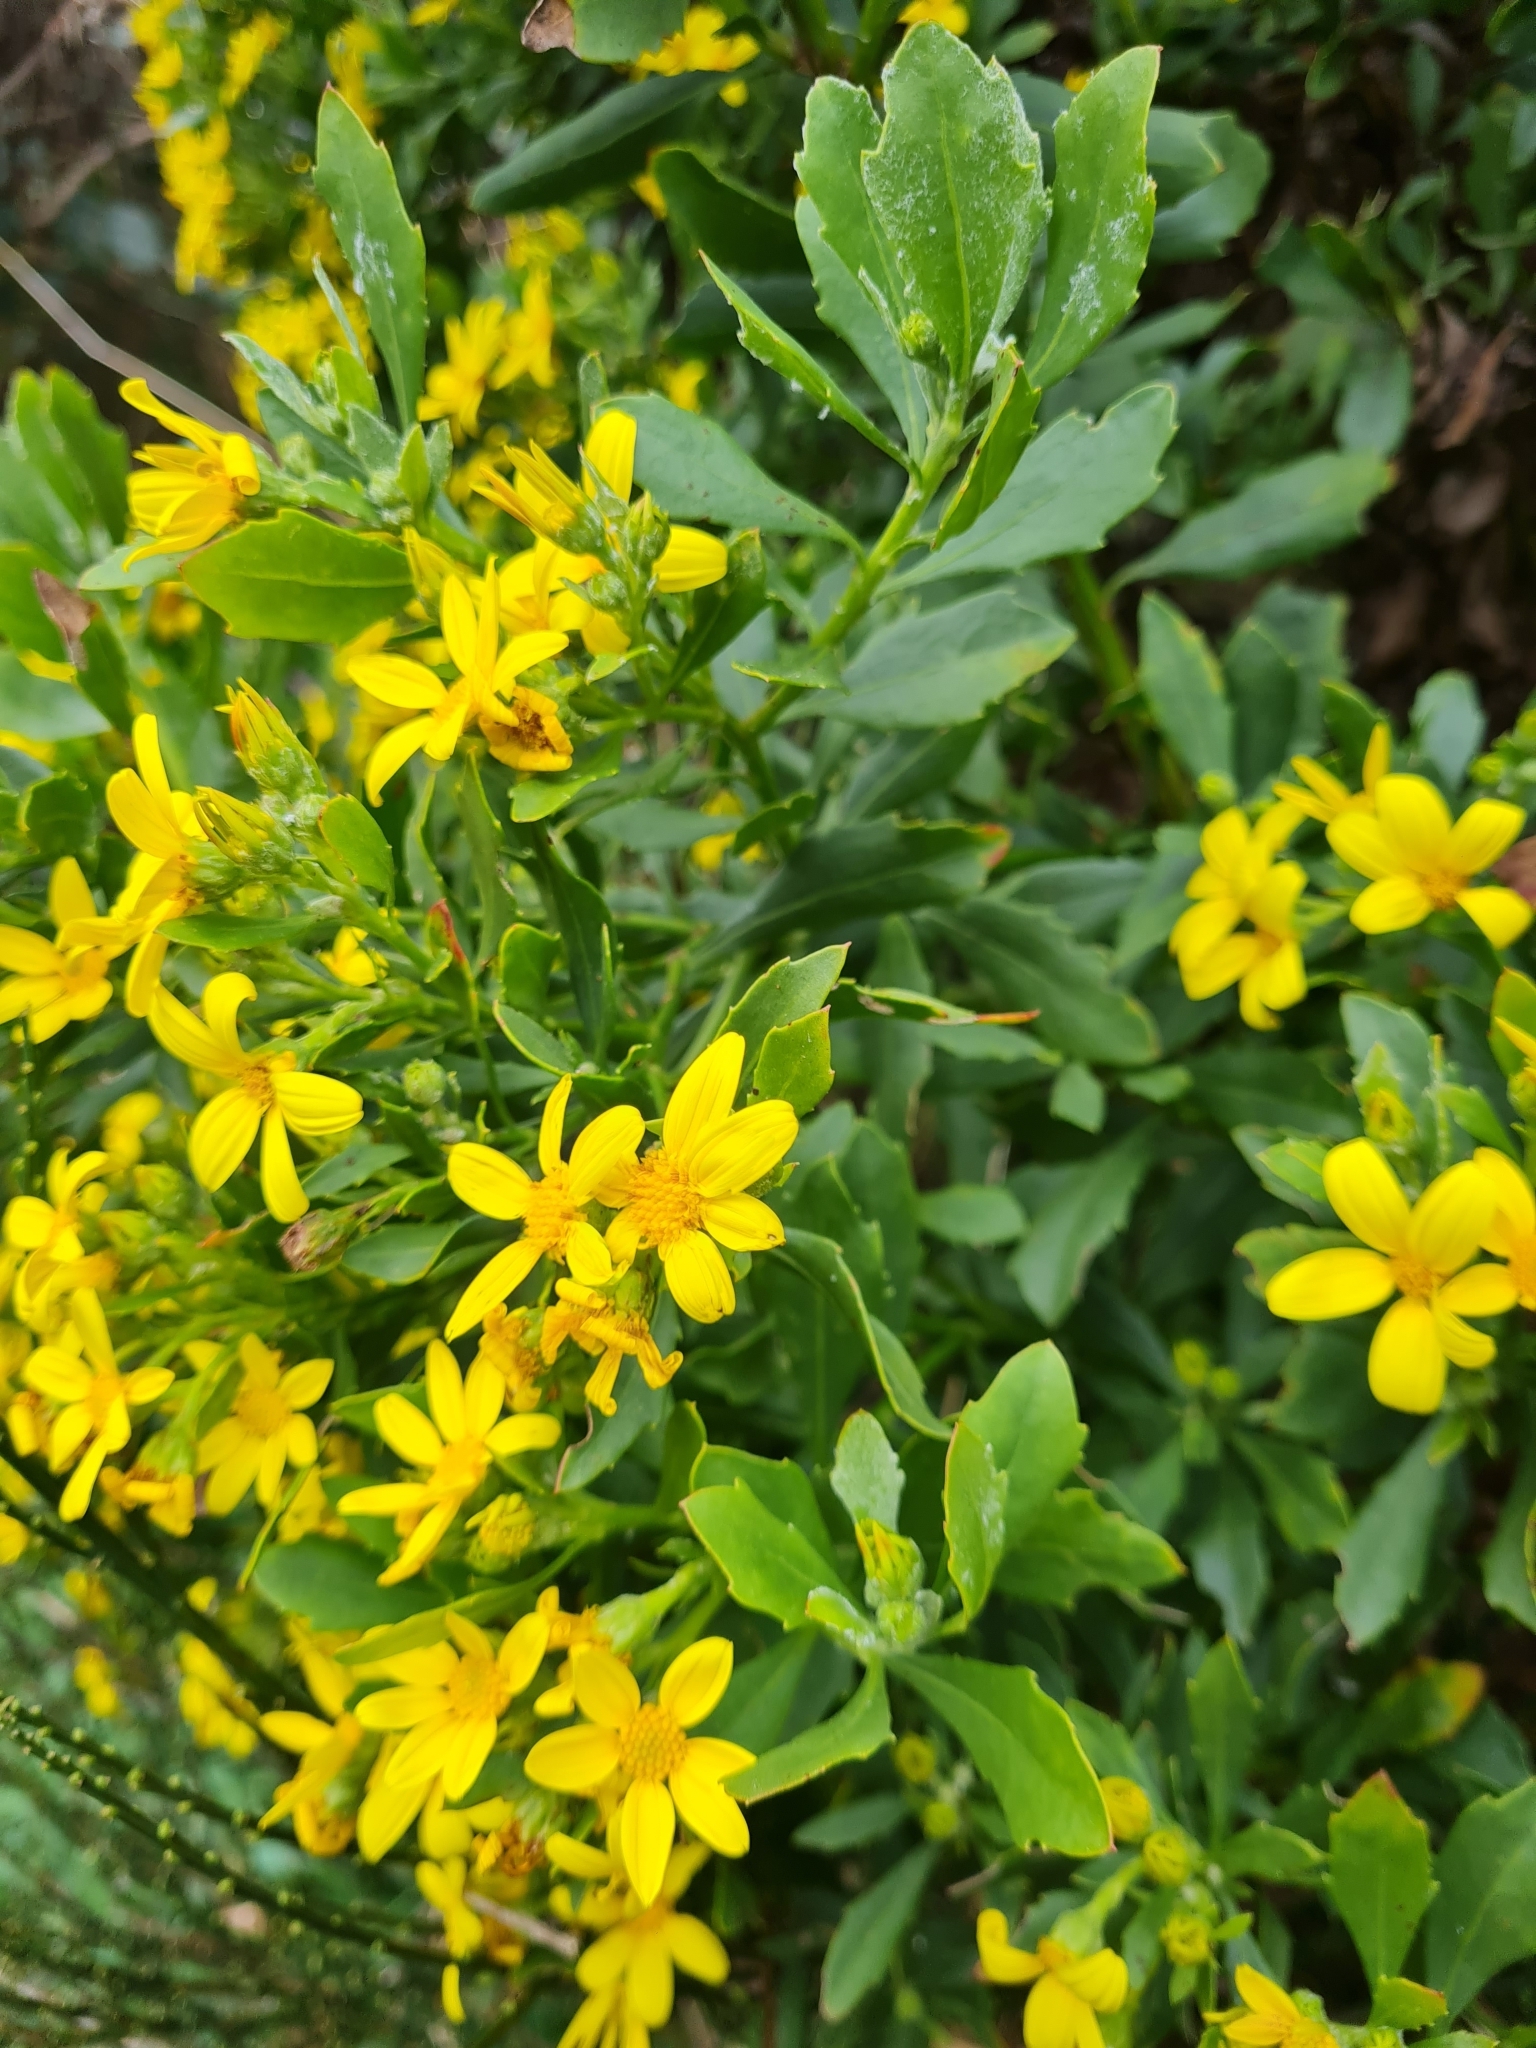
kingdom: Plantae
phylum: Tracheophyta
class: Magnoliopsida
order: Asterales
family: Asteraceae
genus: Osteospermum
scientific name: Osteospermum moniliferum
